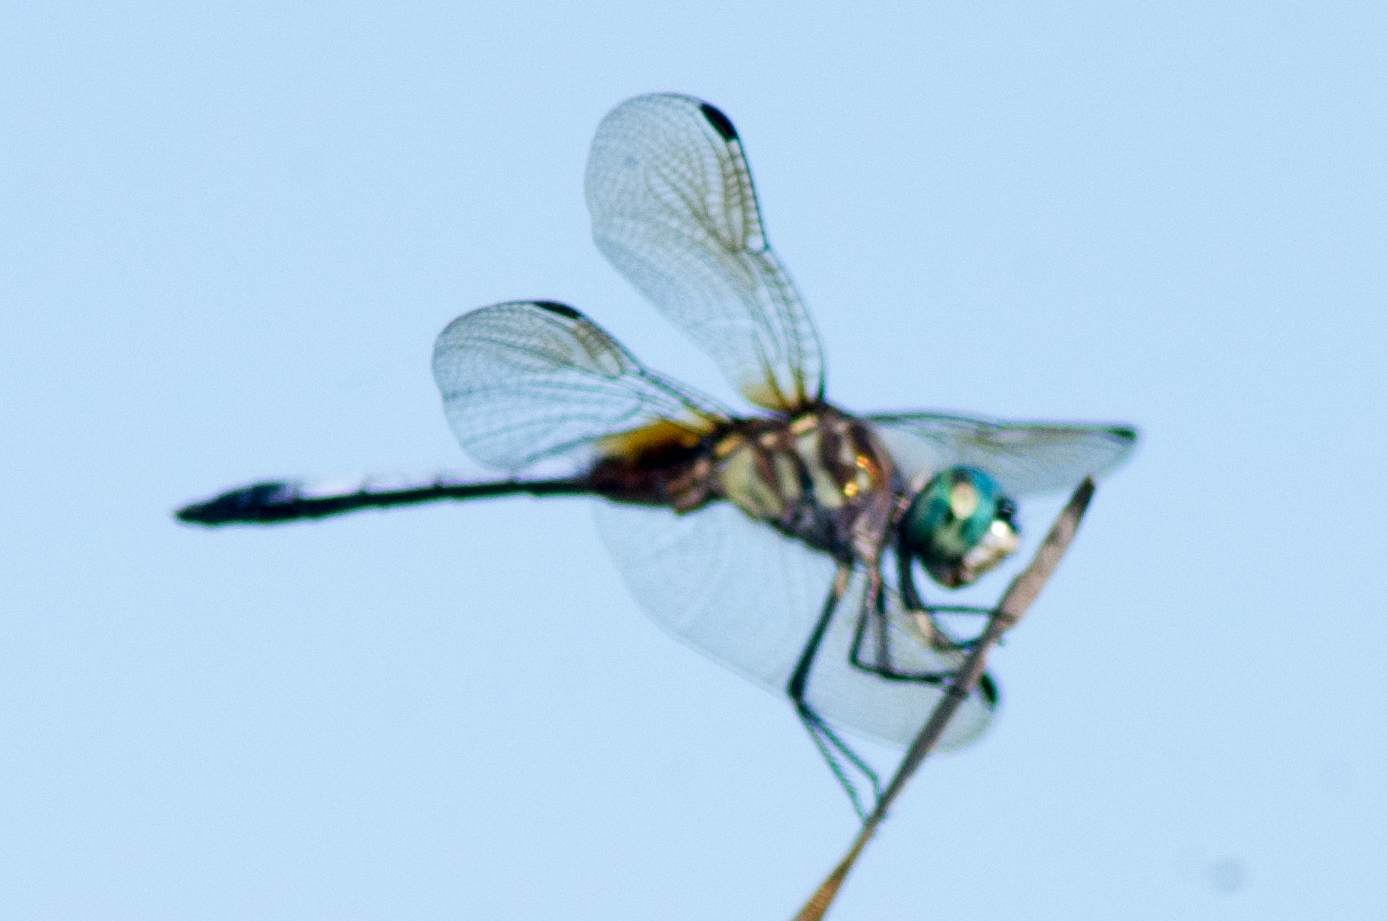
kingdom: Animalia
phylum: Arthropoda
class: Insecta
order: Odonata
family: Libellulidae
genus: Pachydiplax
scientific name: Pachydiplax longipennis
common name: Blue dasher
